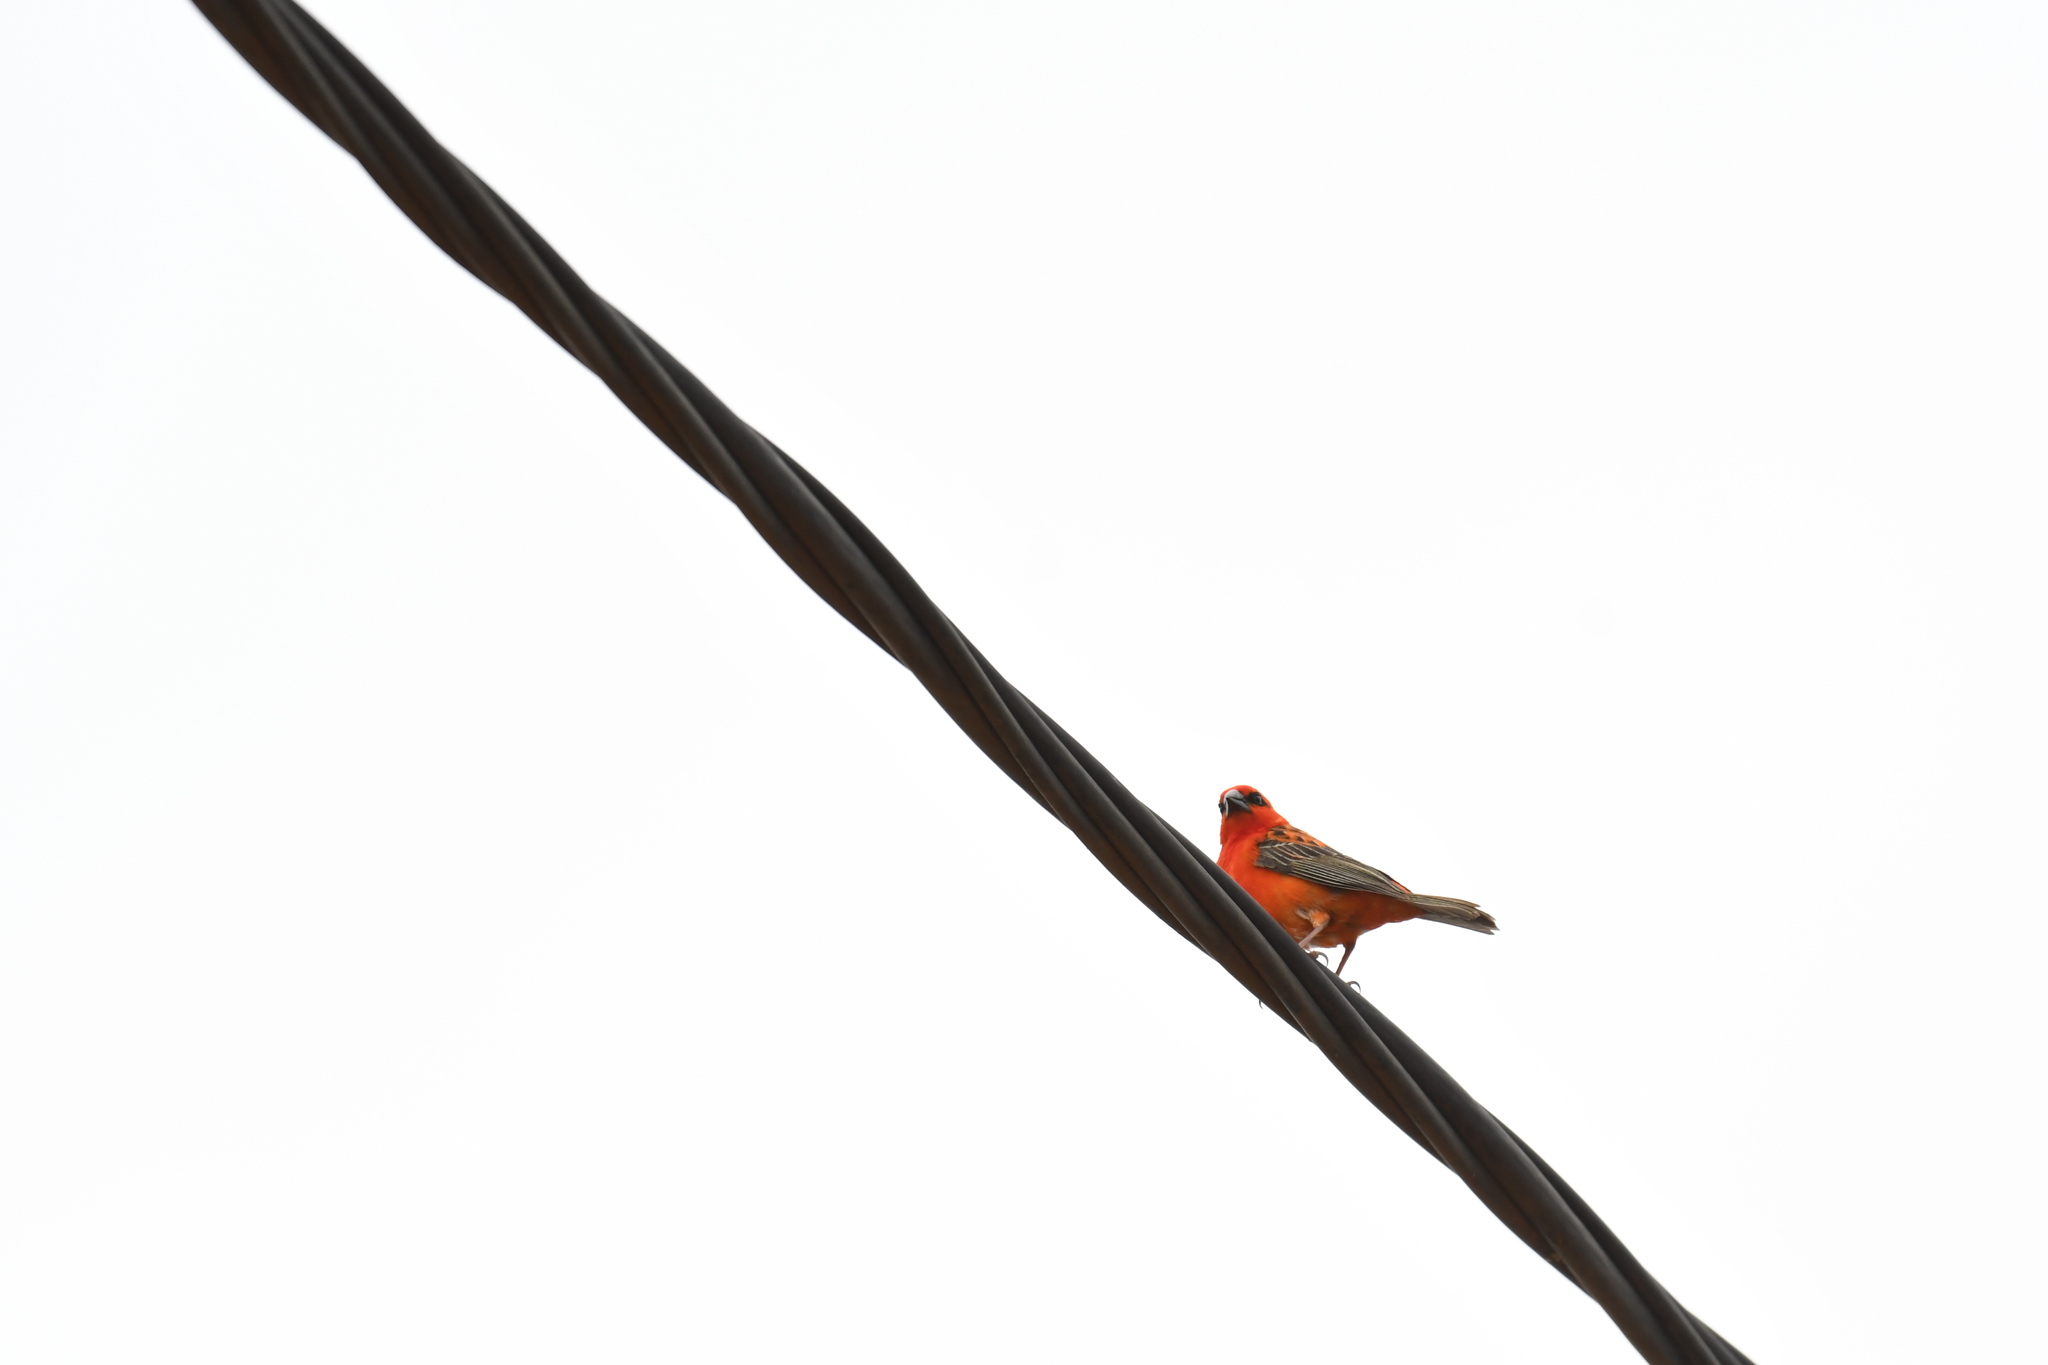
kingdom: Animalia
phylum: Chordata
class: Aves
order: Passeriformes
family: Ploceidae
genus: Foudia
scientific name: Foudia madagascariensis
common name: Red fody
